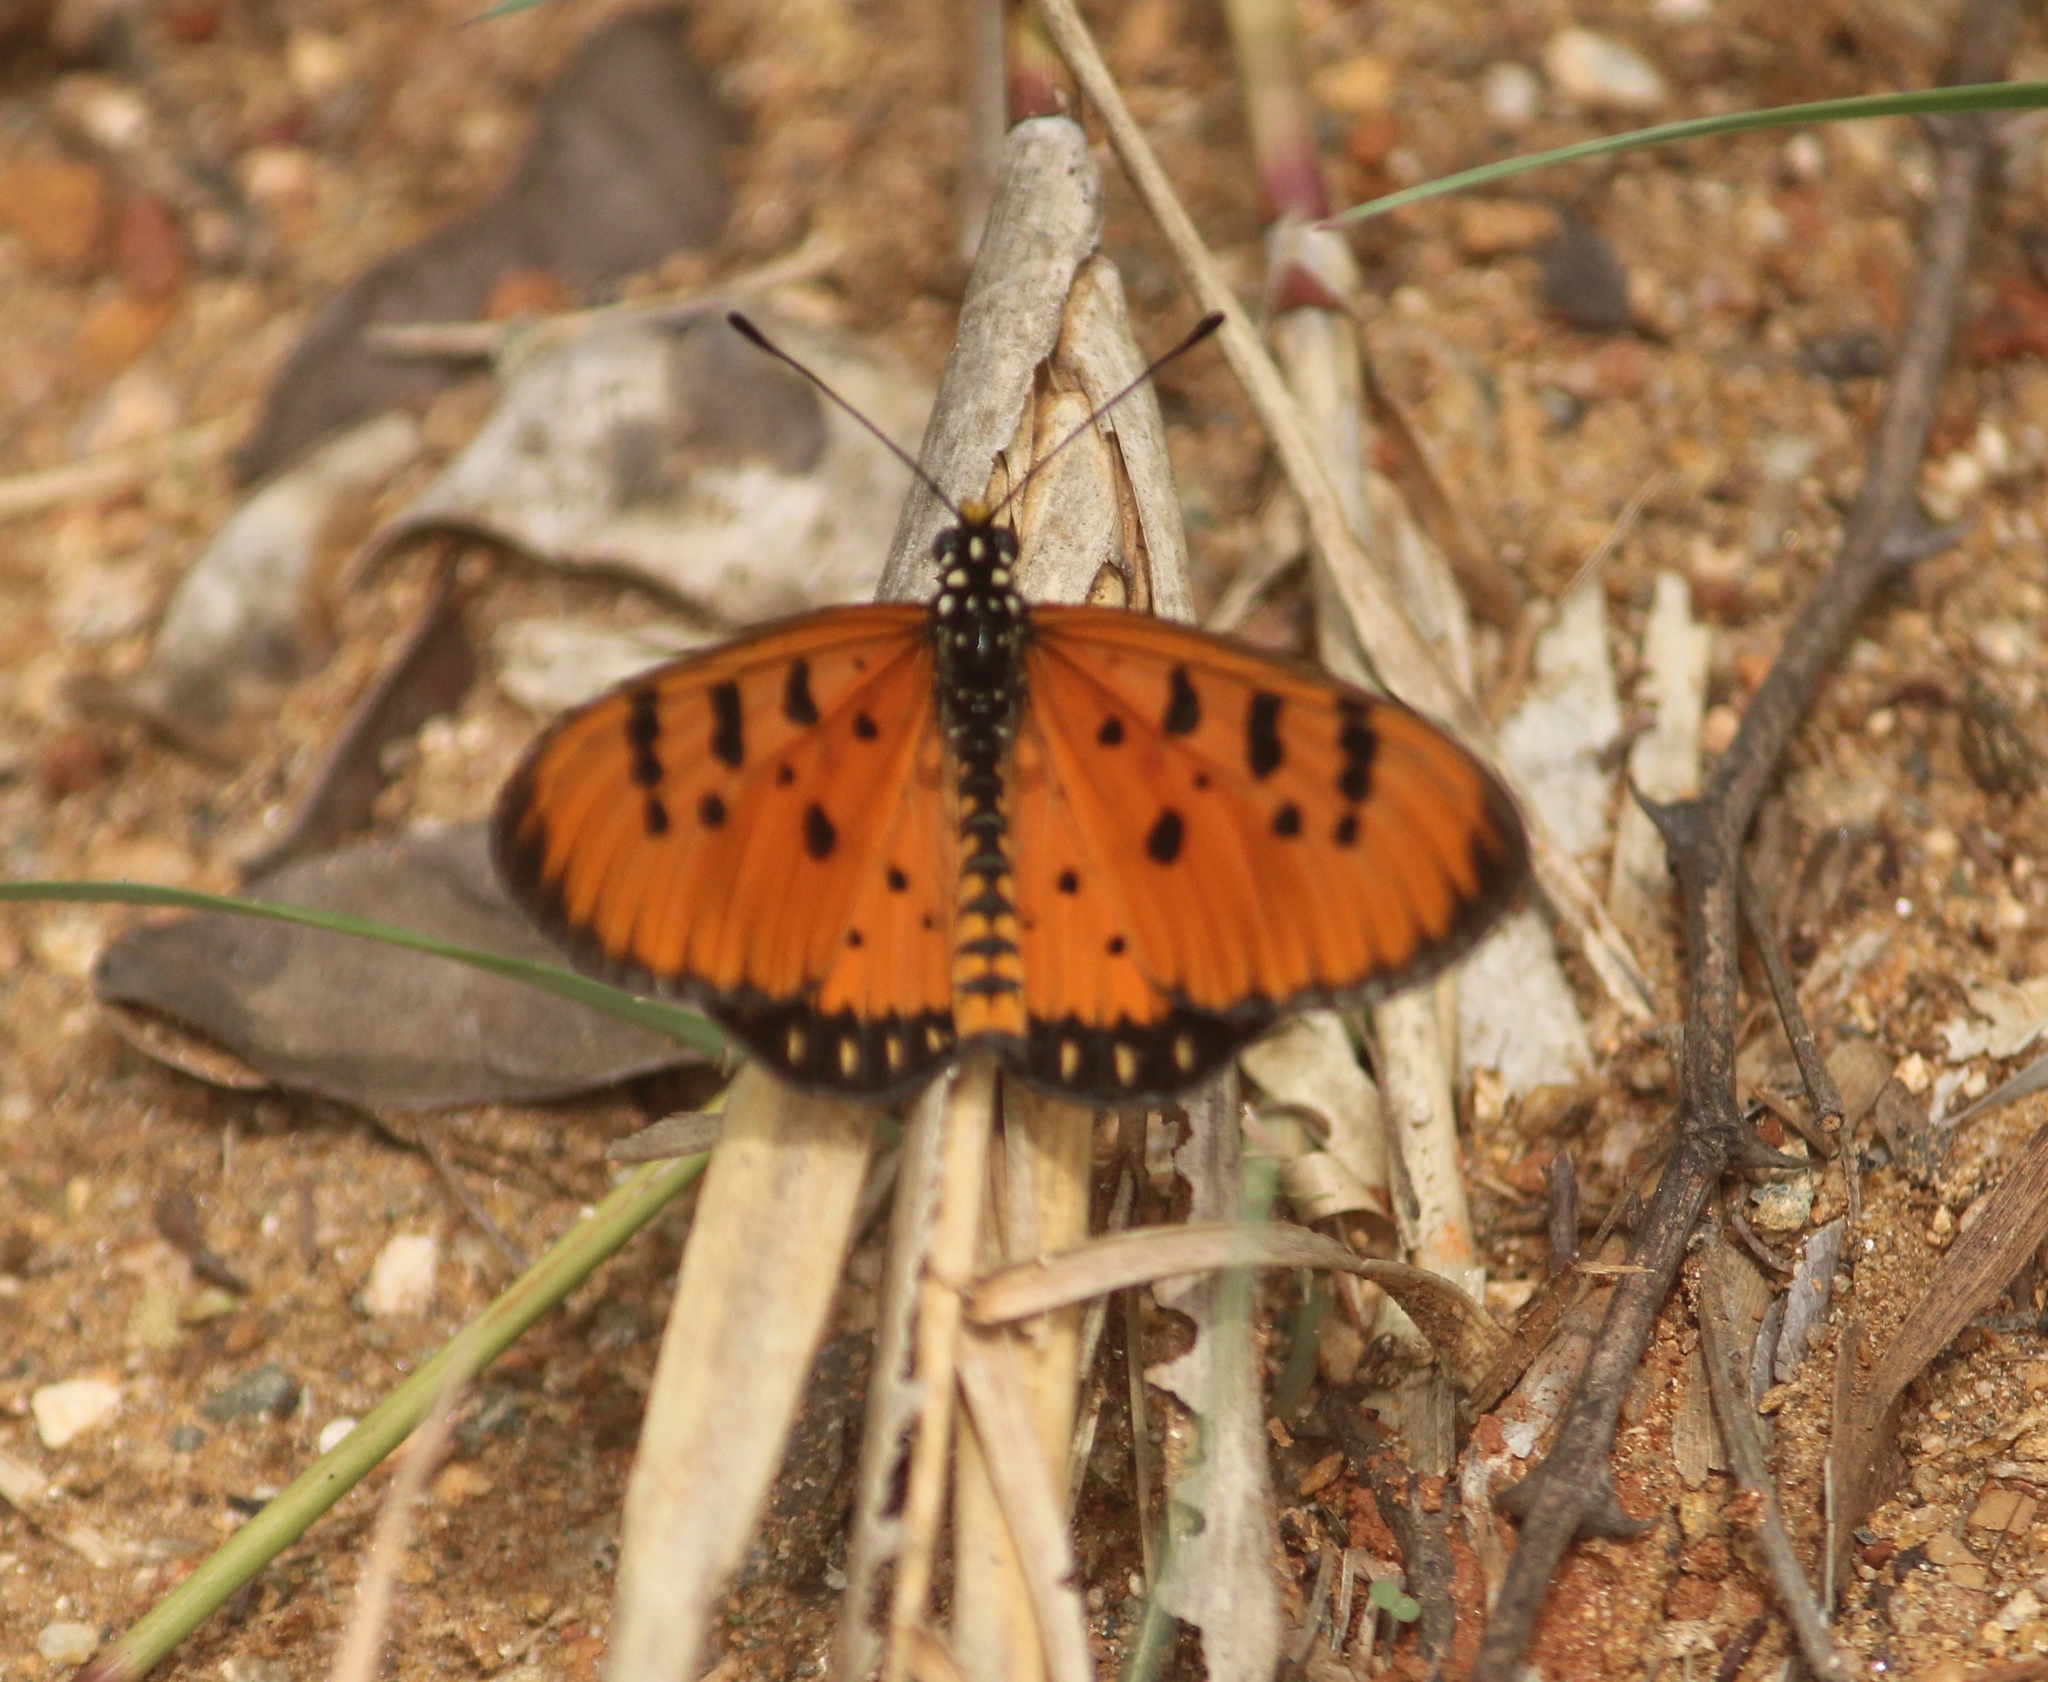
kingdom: Animalia
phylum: Arthropoda
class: Insecta
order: Lepidoptera
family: Nymphalidae
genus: Acraea
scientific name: Acraea terpsicore
